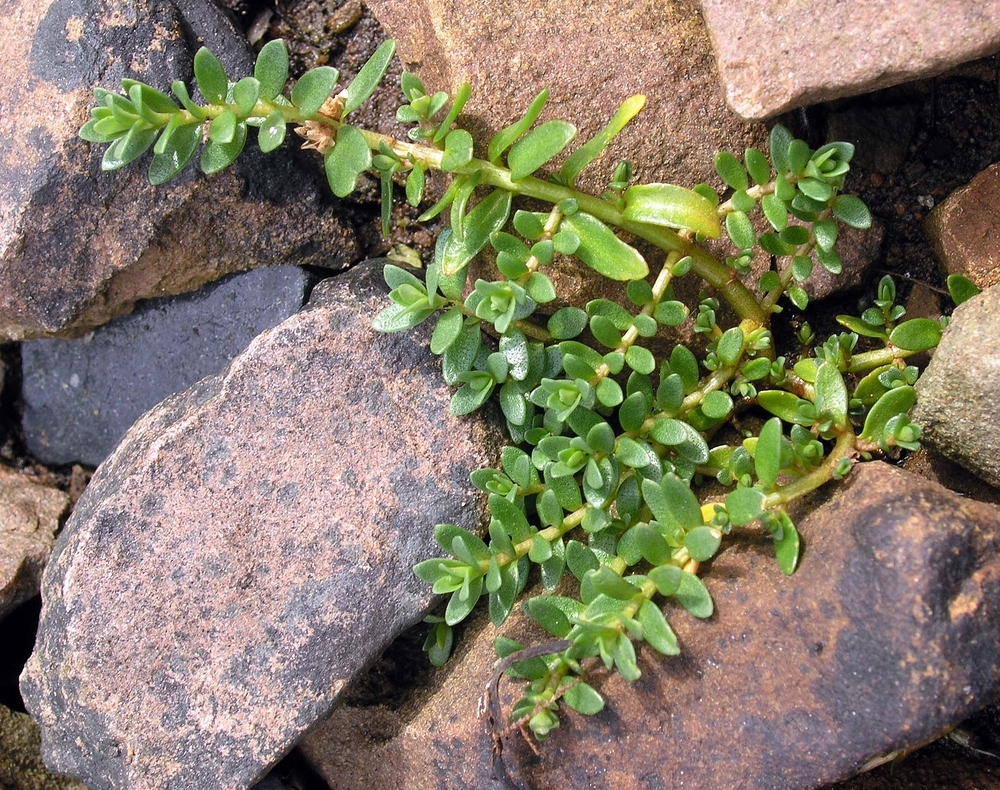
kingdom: Plantae
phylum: Tracheophyta
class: Magnoliopsida
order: Ericales
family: Primulaceae
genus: Lysimachia
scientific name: Lysimachia maritima
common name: Sea milkwort
